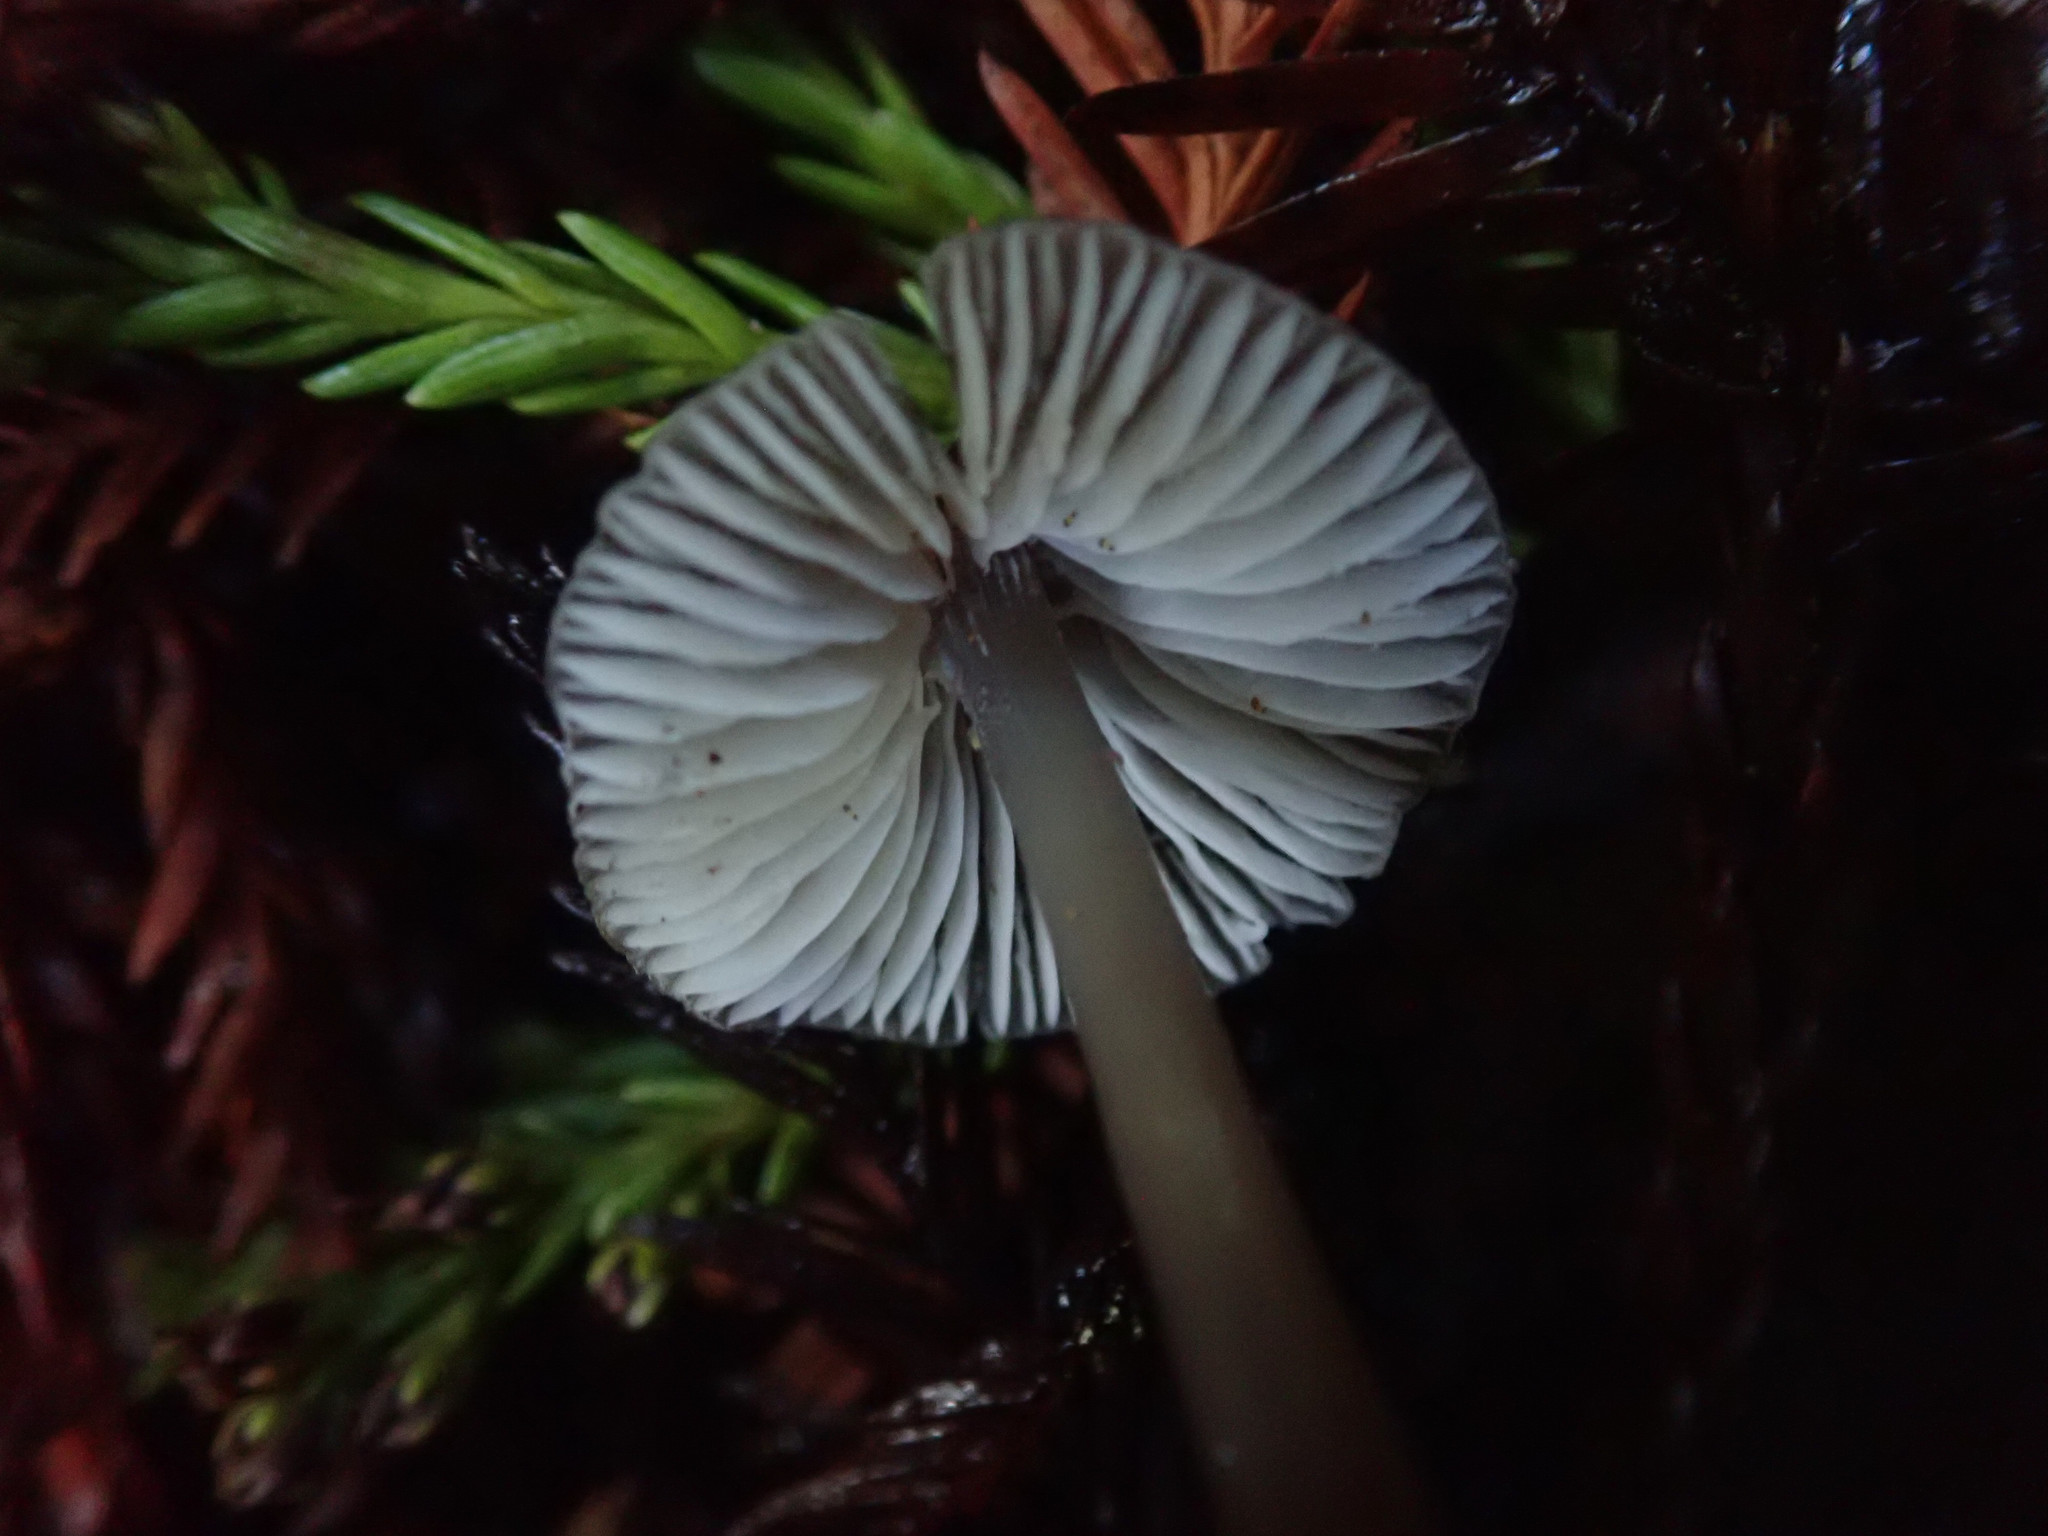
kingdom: Fungi
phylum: Basidiomycota
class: Agaricomycetes
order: Agaricales
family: Mycenaceae
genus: Mycena
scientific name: Mycena quiniaultensis
